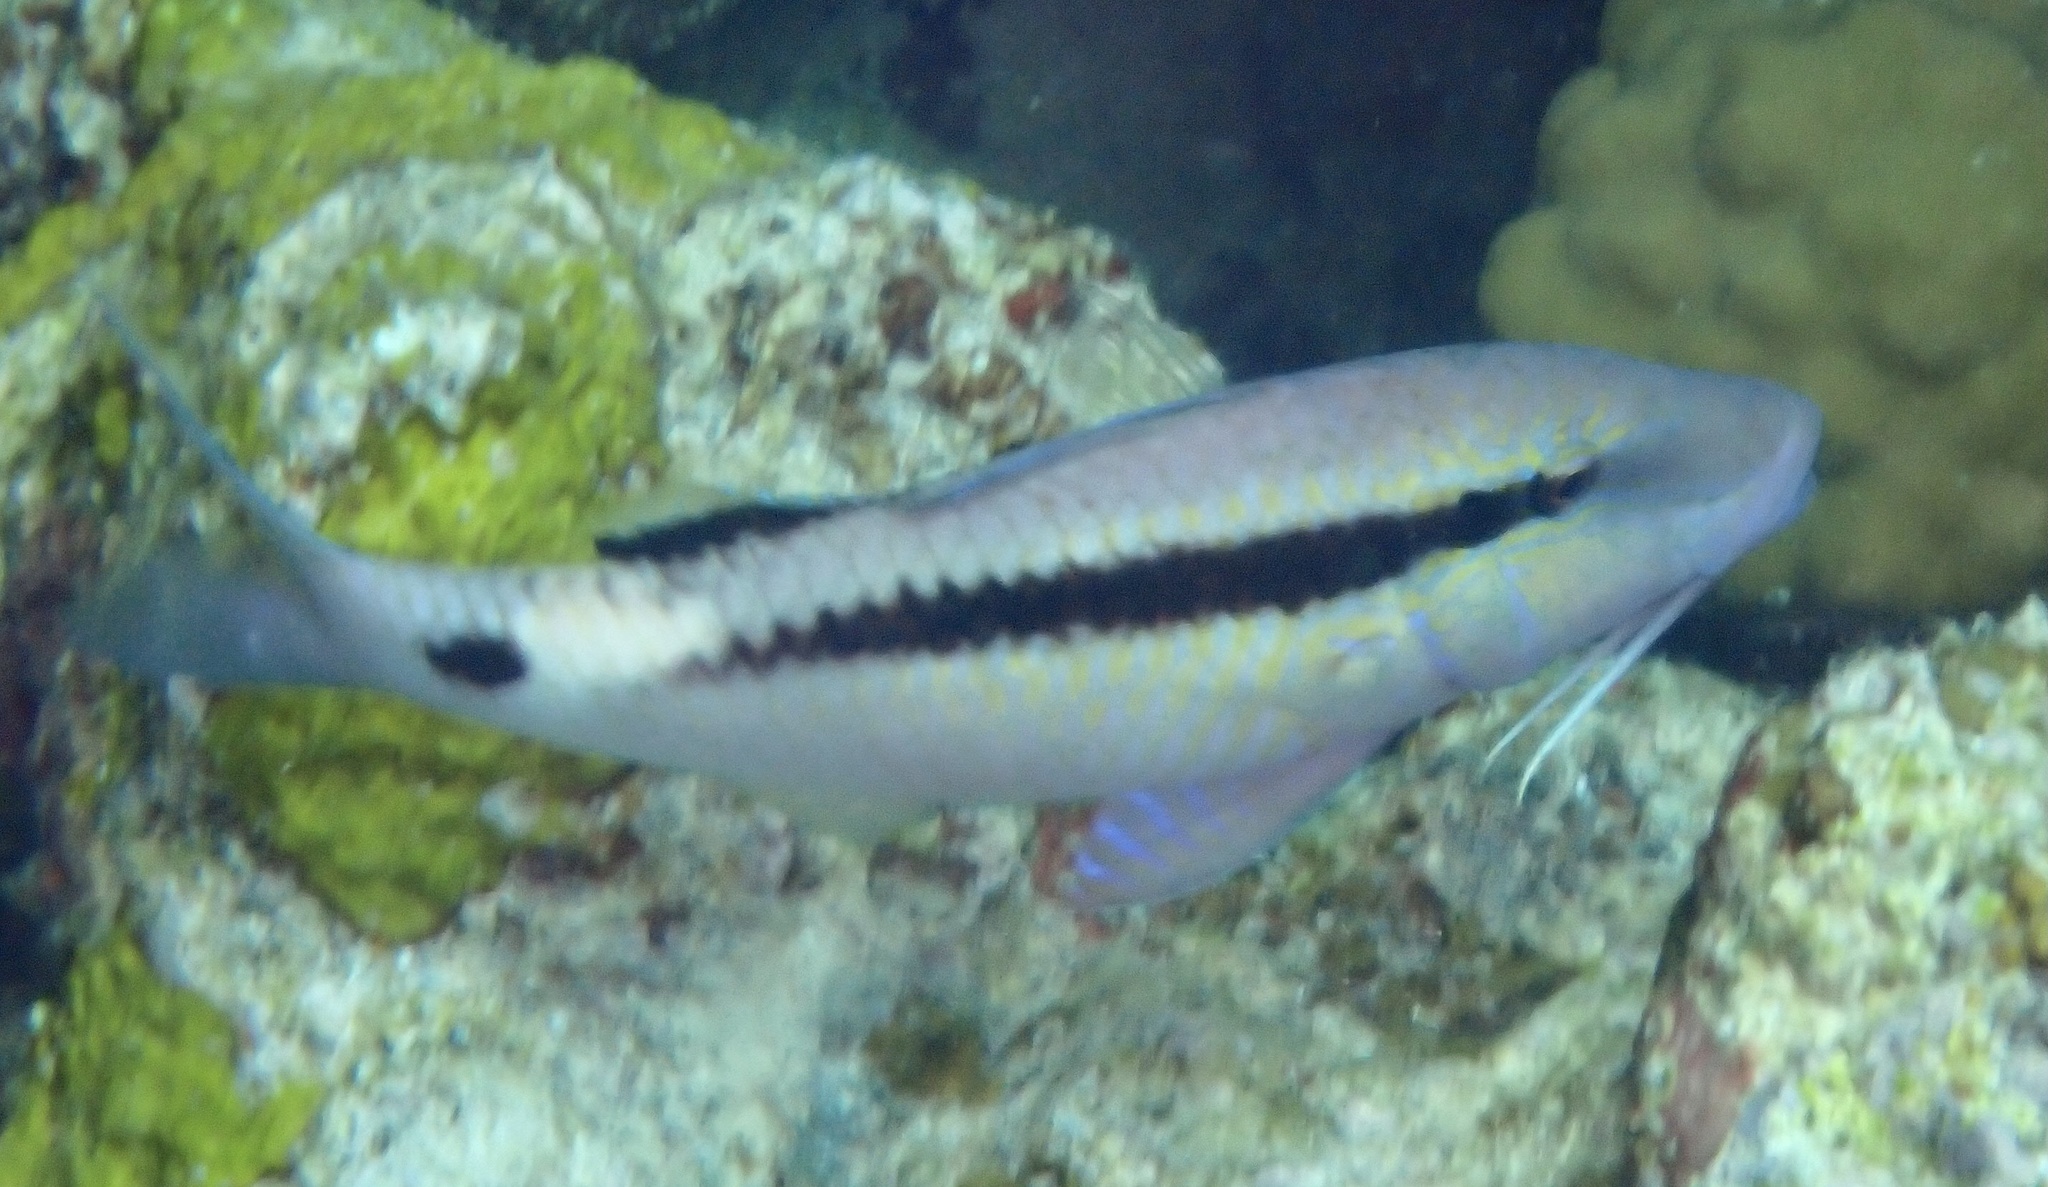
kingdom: Animalia
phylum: Chordata
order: Perciformes
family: Mullidae
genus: Parupeneus
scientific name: Parupeneus macronemus
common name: Long-barbel goatfish
